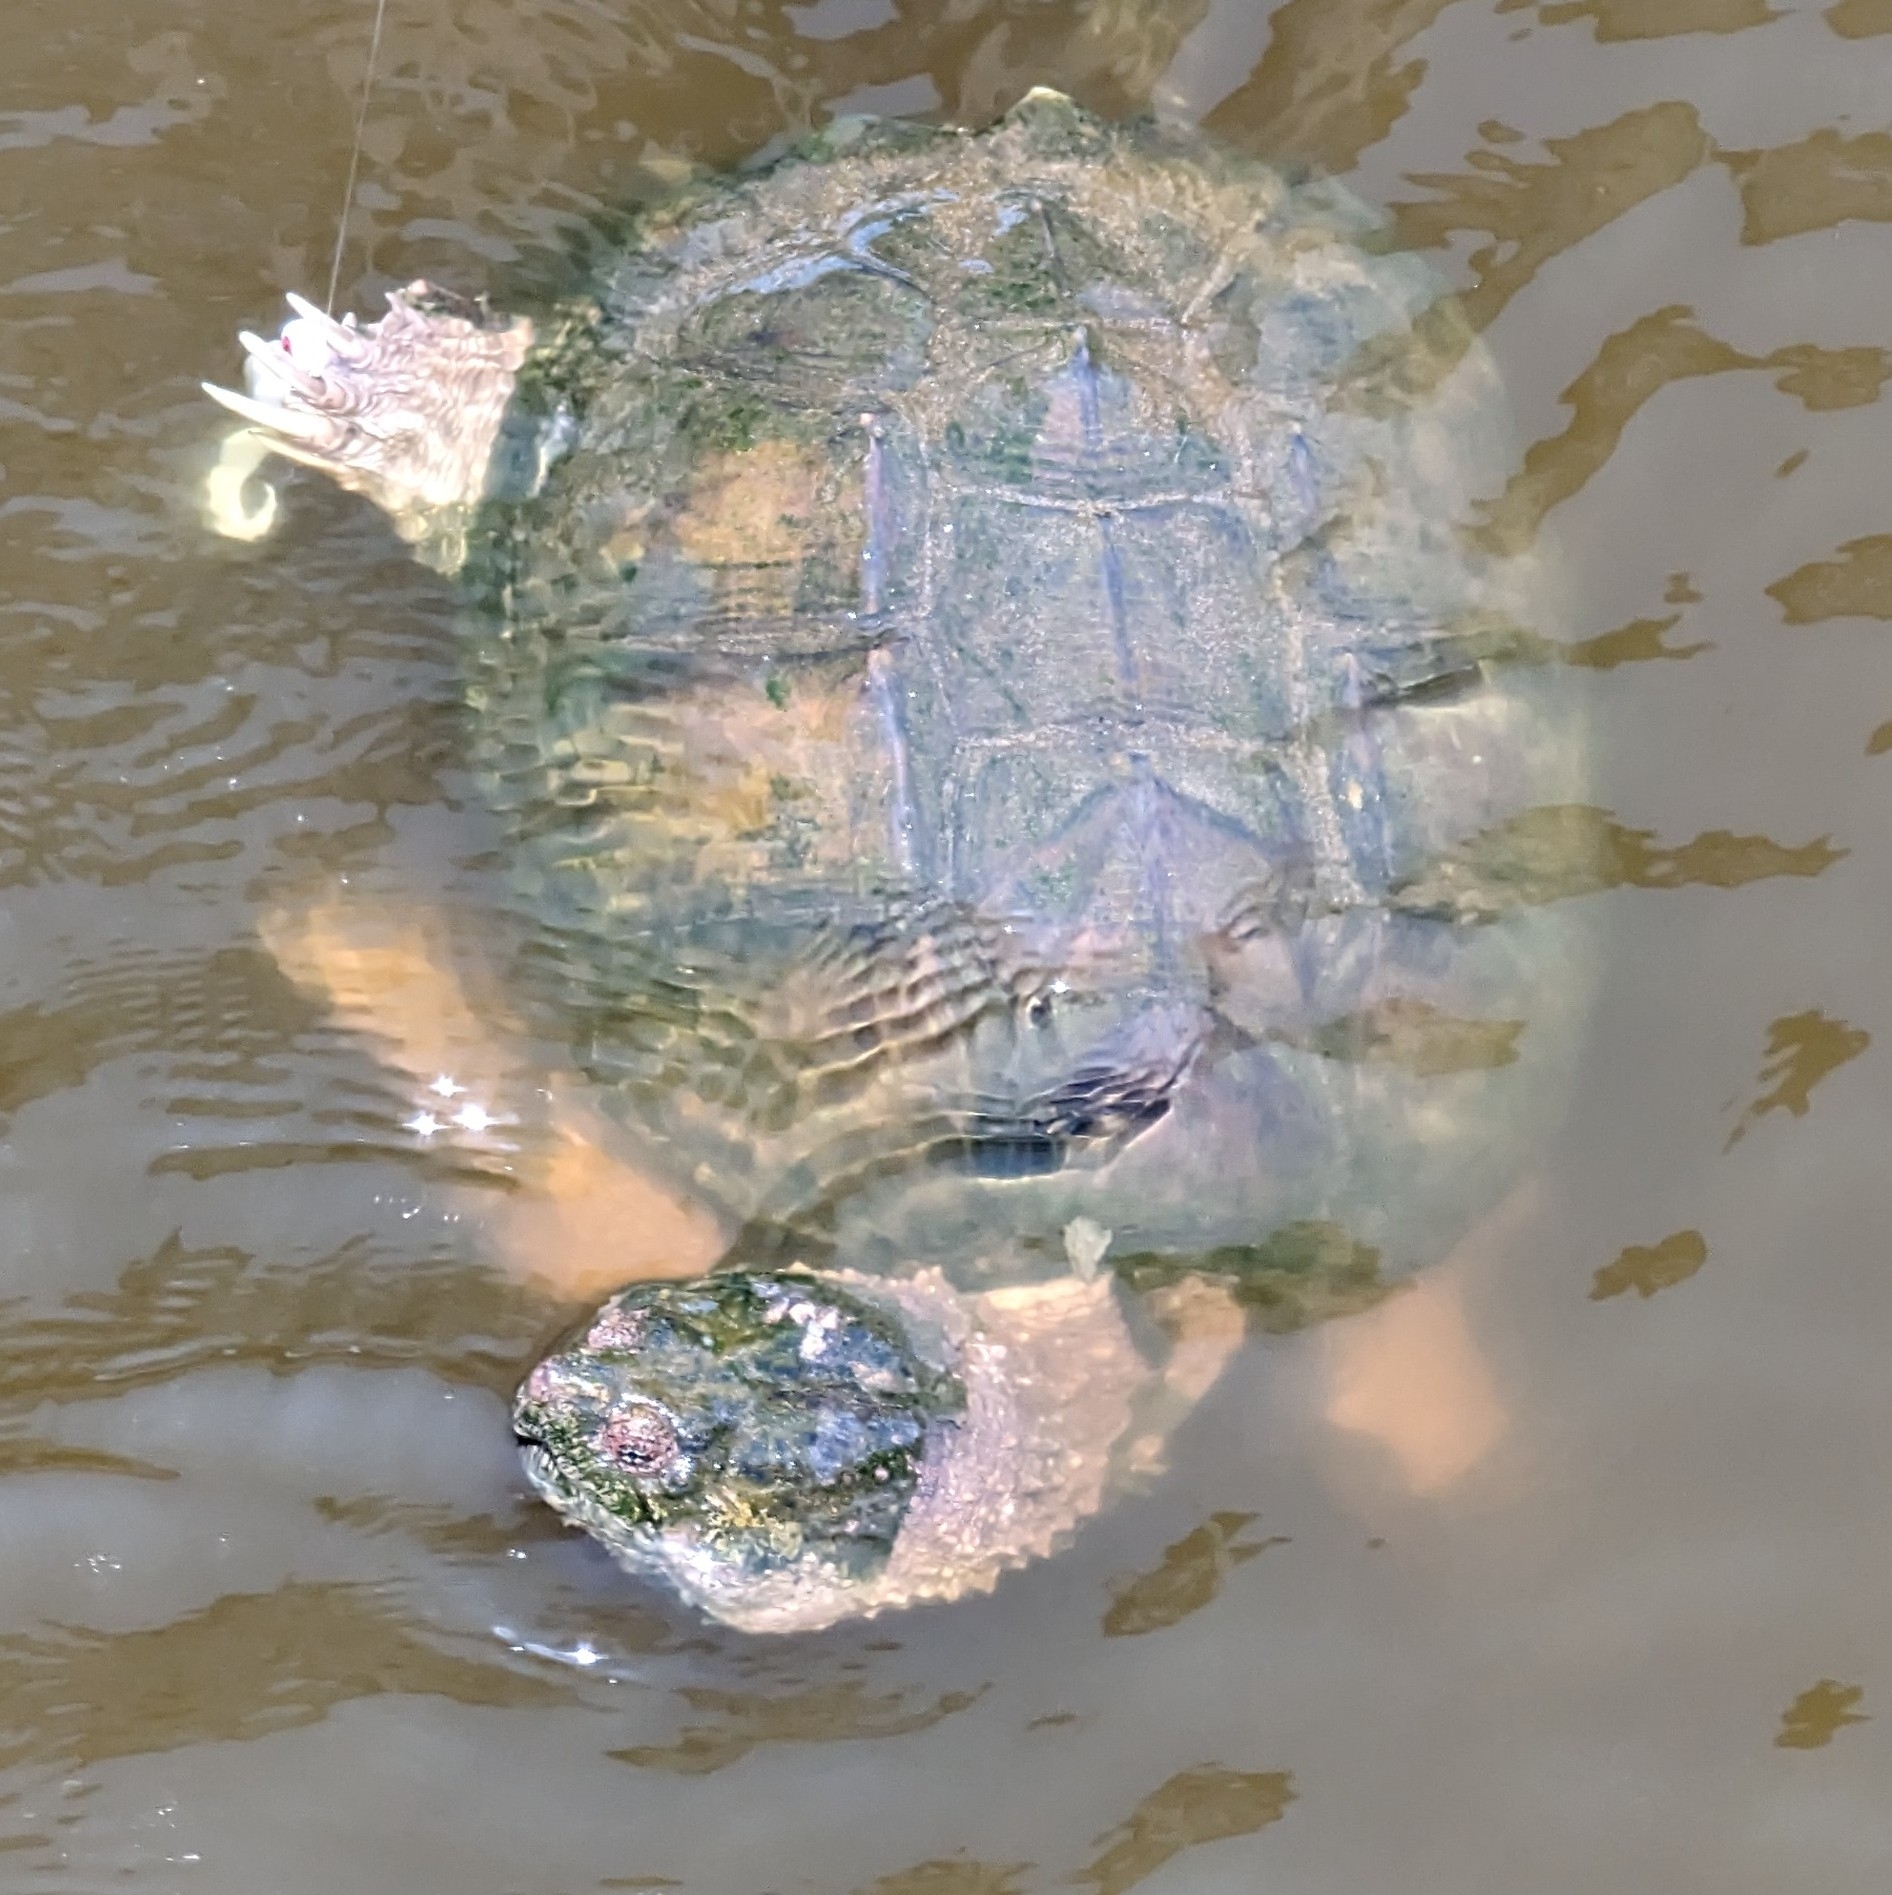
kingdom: Animalia
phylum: Chordata
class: Testudines
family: Chelydridae
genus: Chelydra
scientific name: Chelydra serpentina
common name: Common snapping turtle
